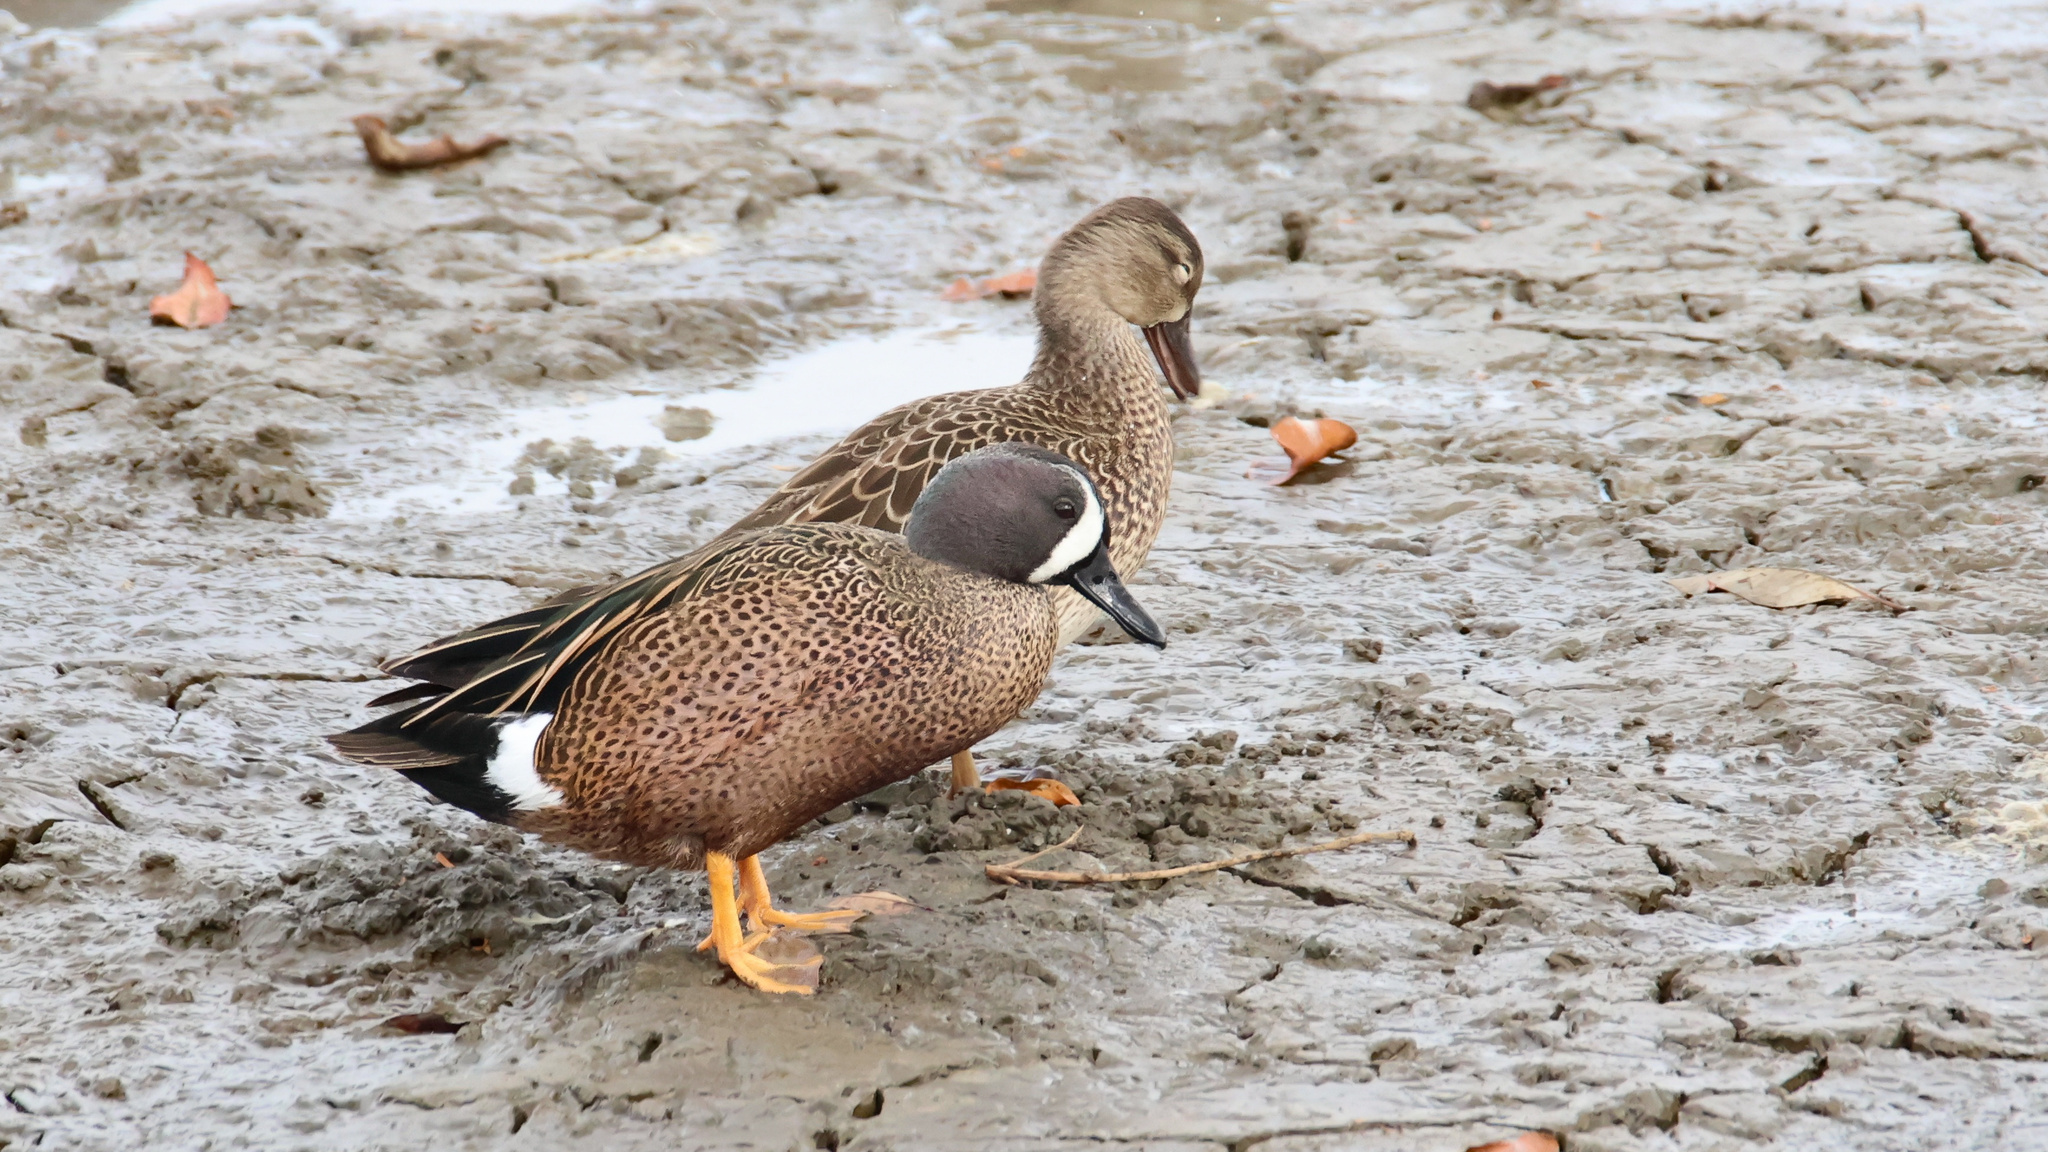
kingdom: Animalia
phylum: Chordata
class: Aves
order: Anseriformes
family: Anatidae
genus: Spatula
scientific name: Spatula discors
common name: Blue-winged teal
